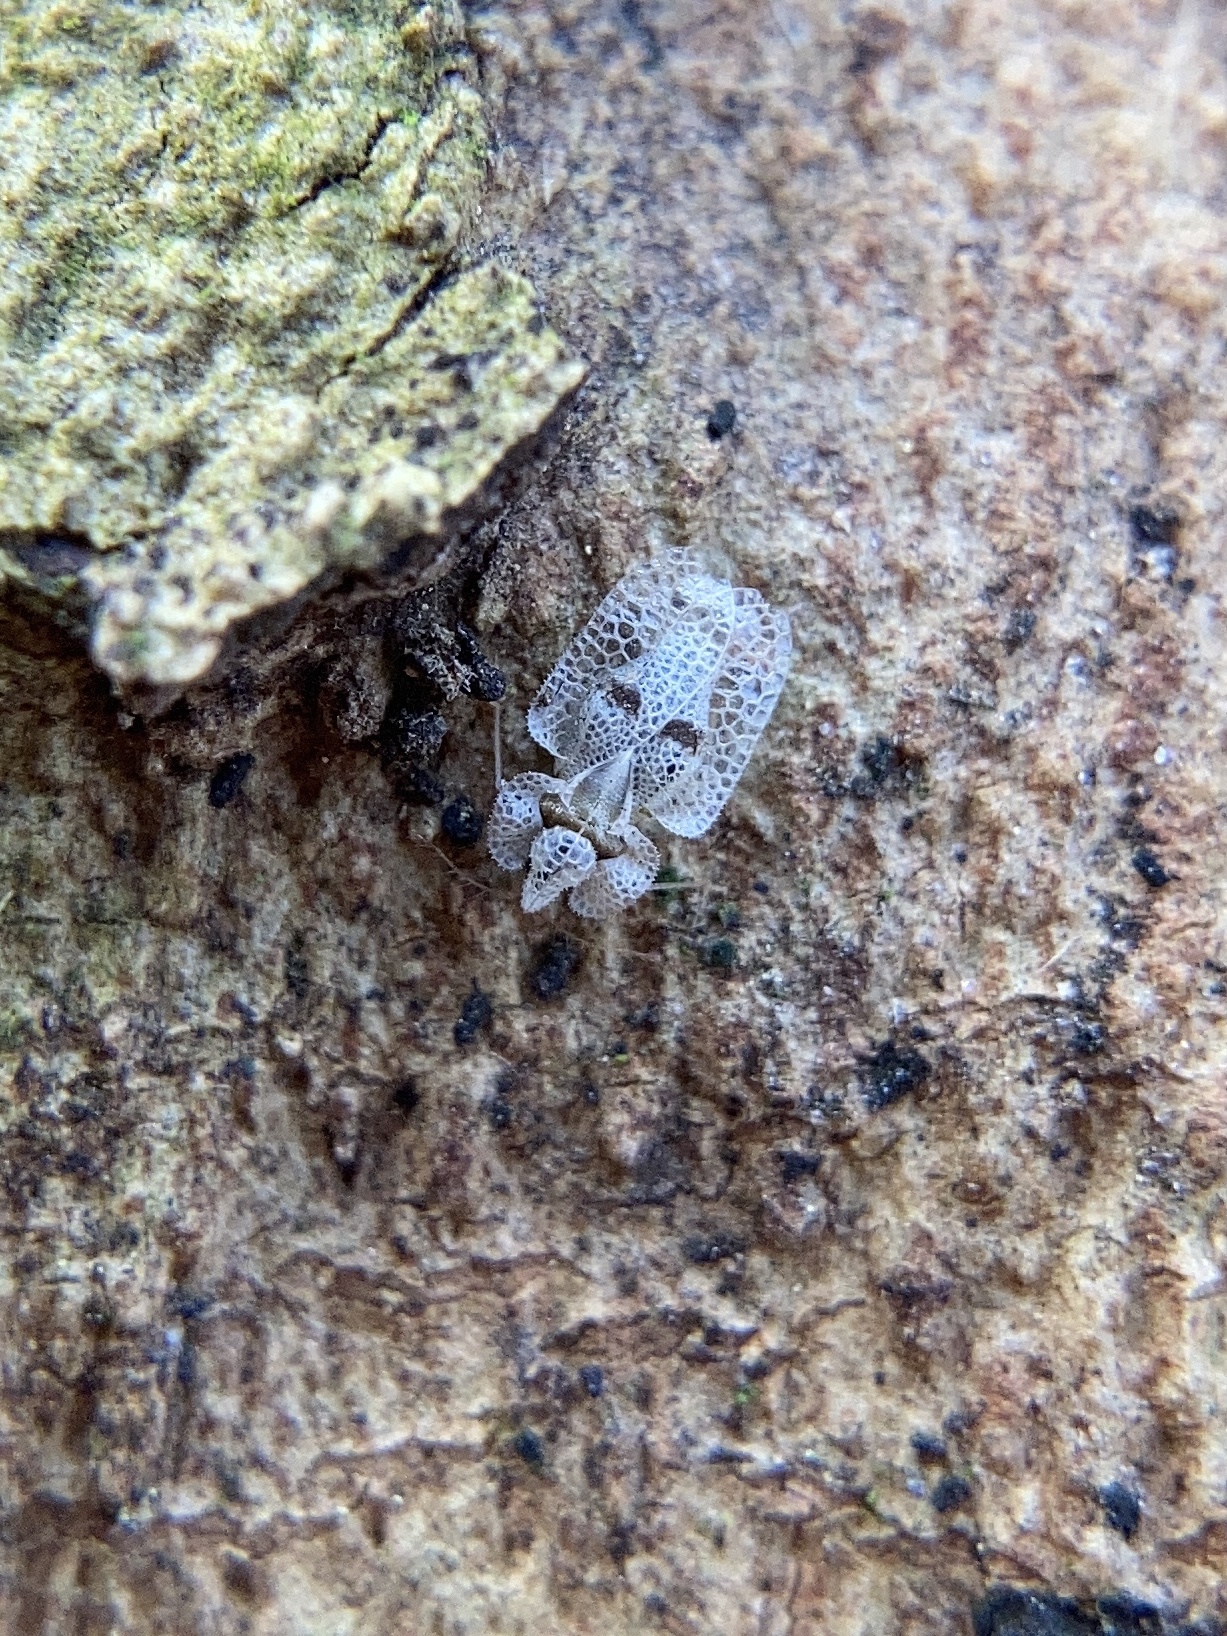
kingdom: Animalia
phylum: Arthropoda
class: Insecta
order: Hemiptera
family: Tingidae
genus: Corythucha
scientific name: Corythucha ciliata
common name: Sycamore lace bug
